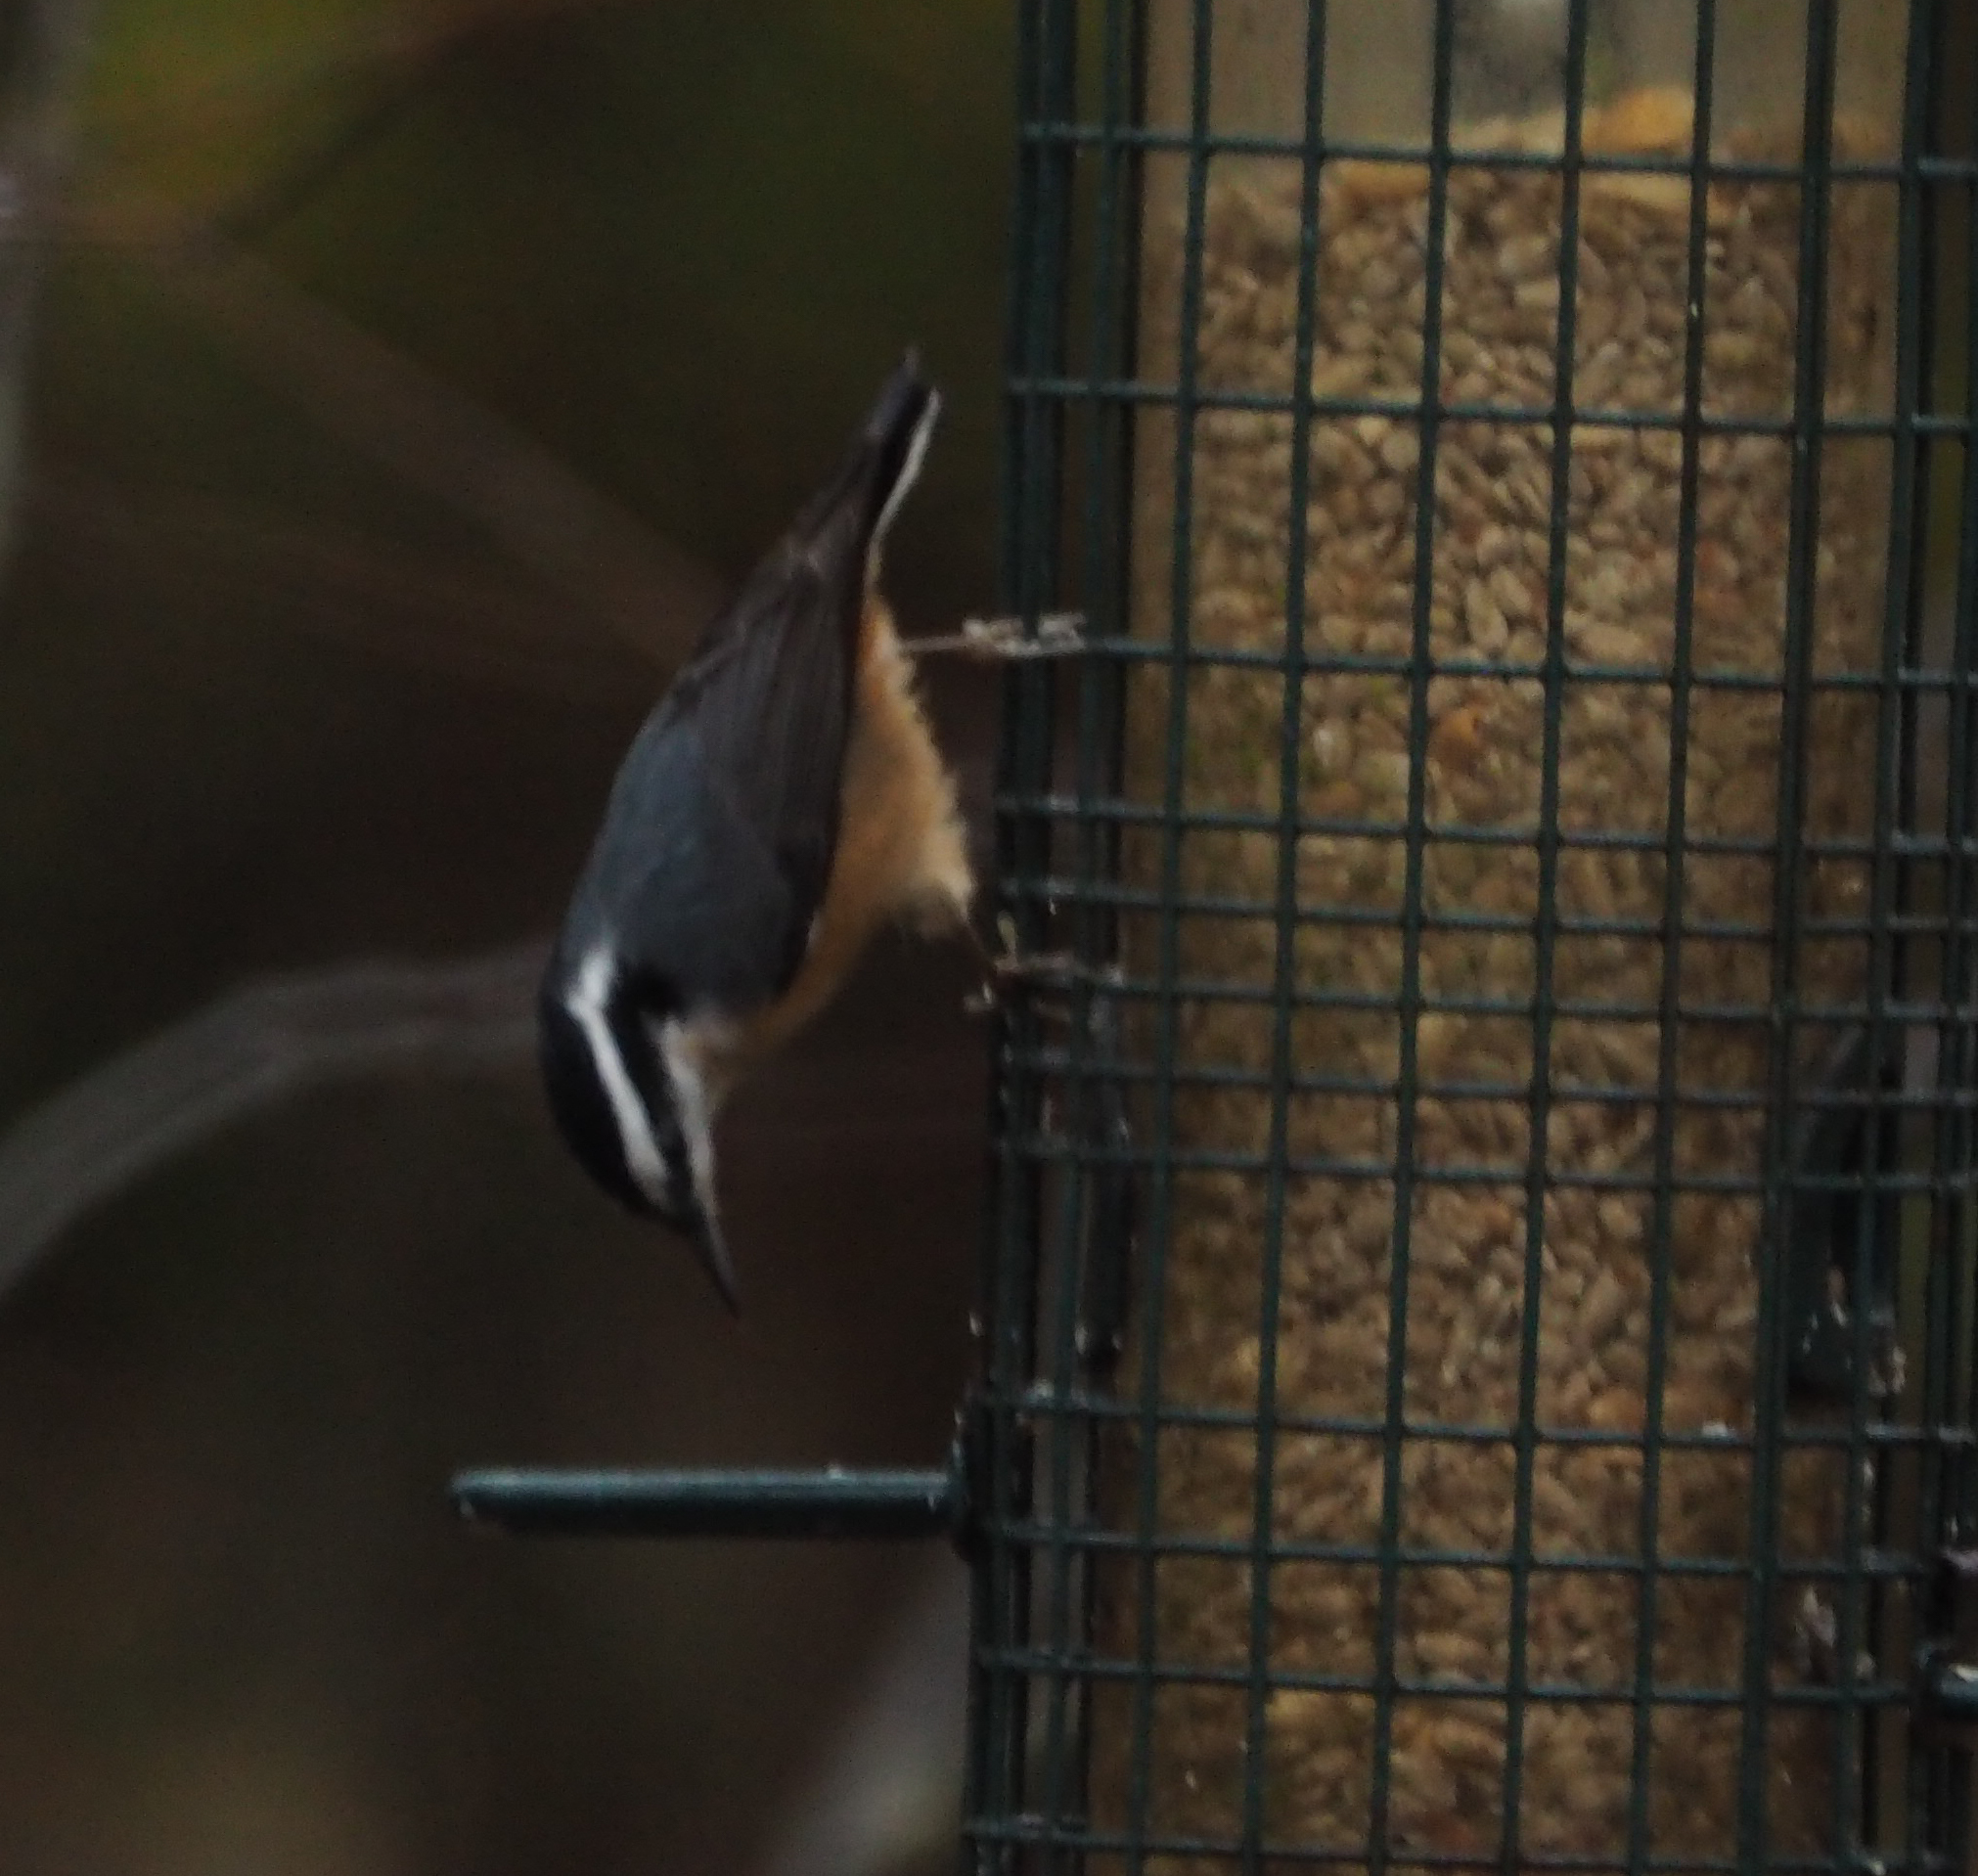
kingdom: Animalia
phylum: Chordata
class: Aves
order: Passeriformes
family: Sittidae
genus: Sitta
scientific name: Sitta canadensis
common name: Red-breasted nuthatch
